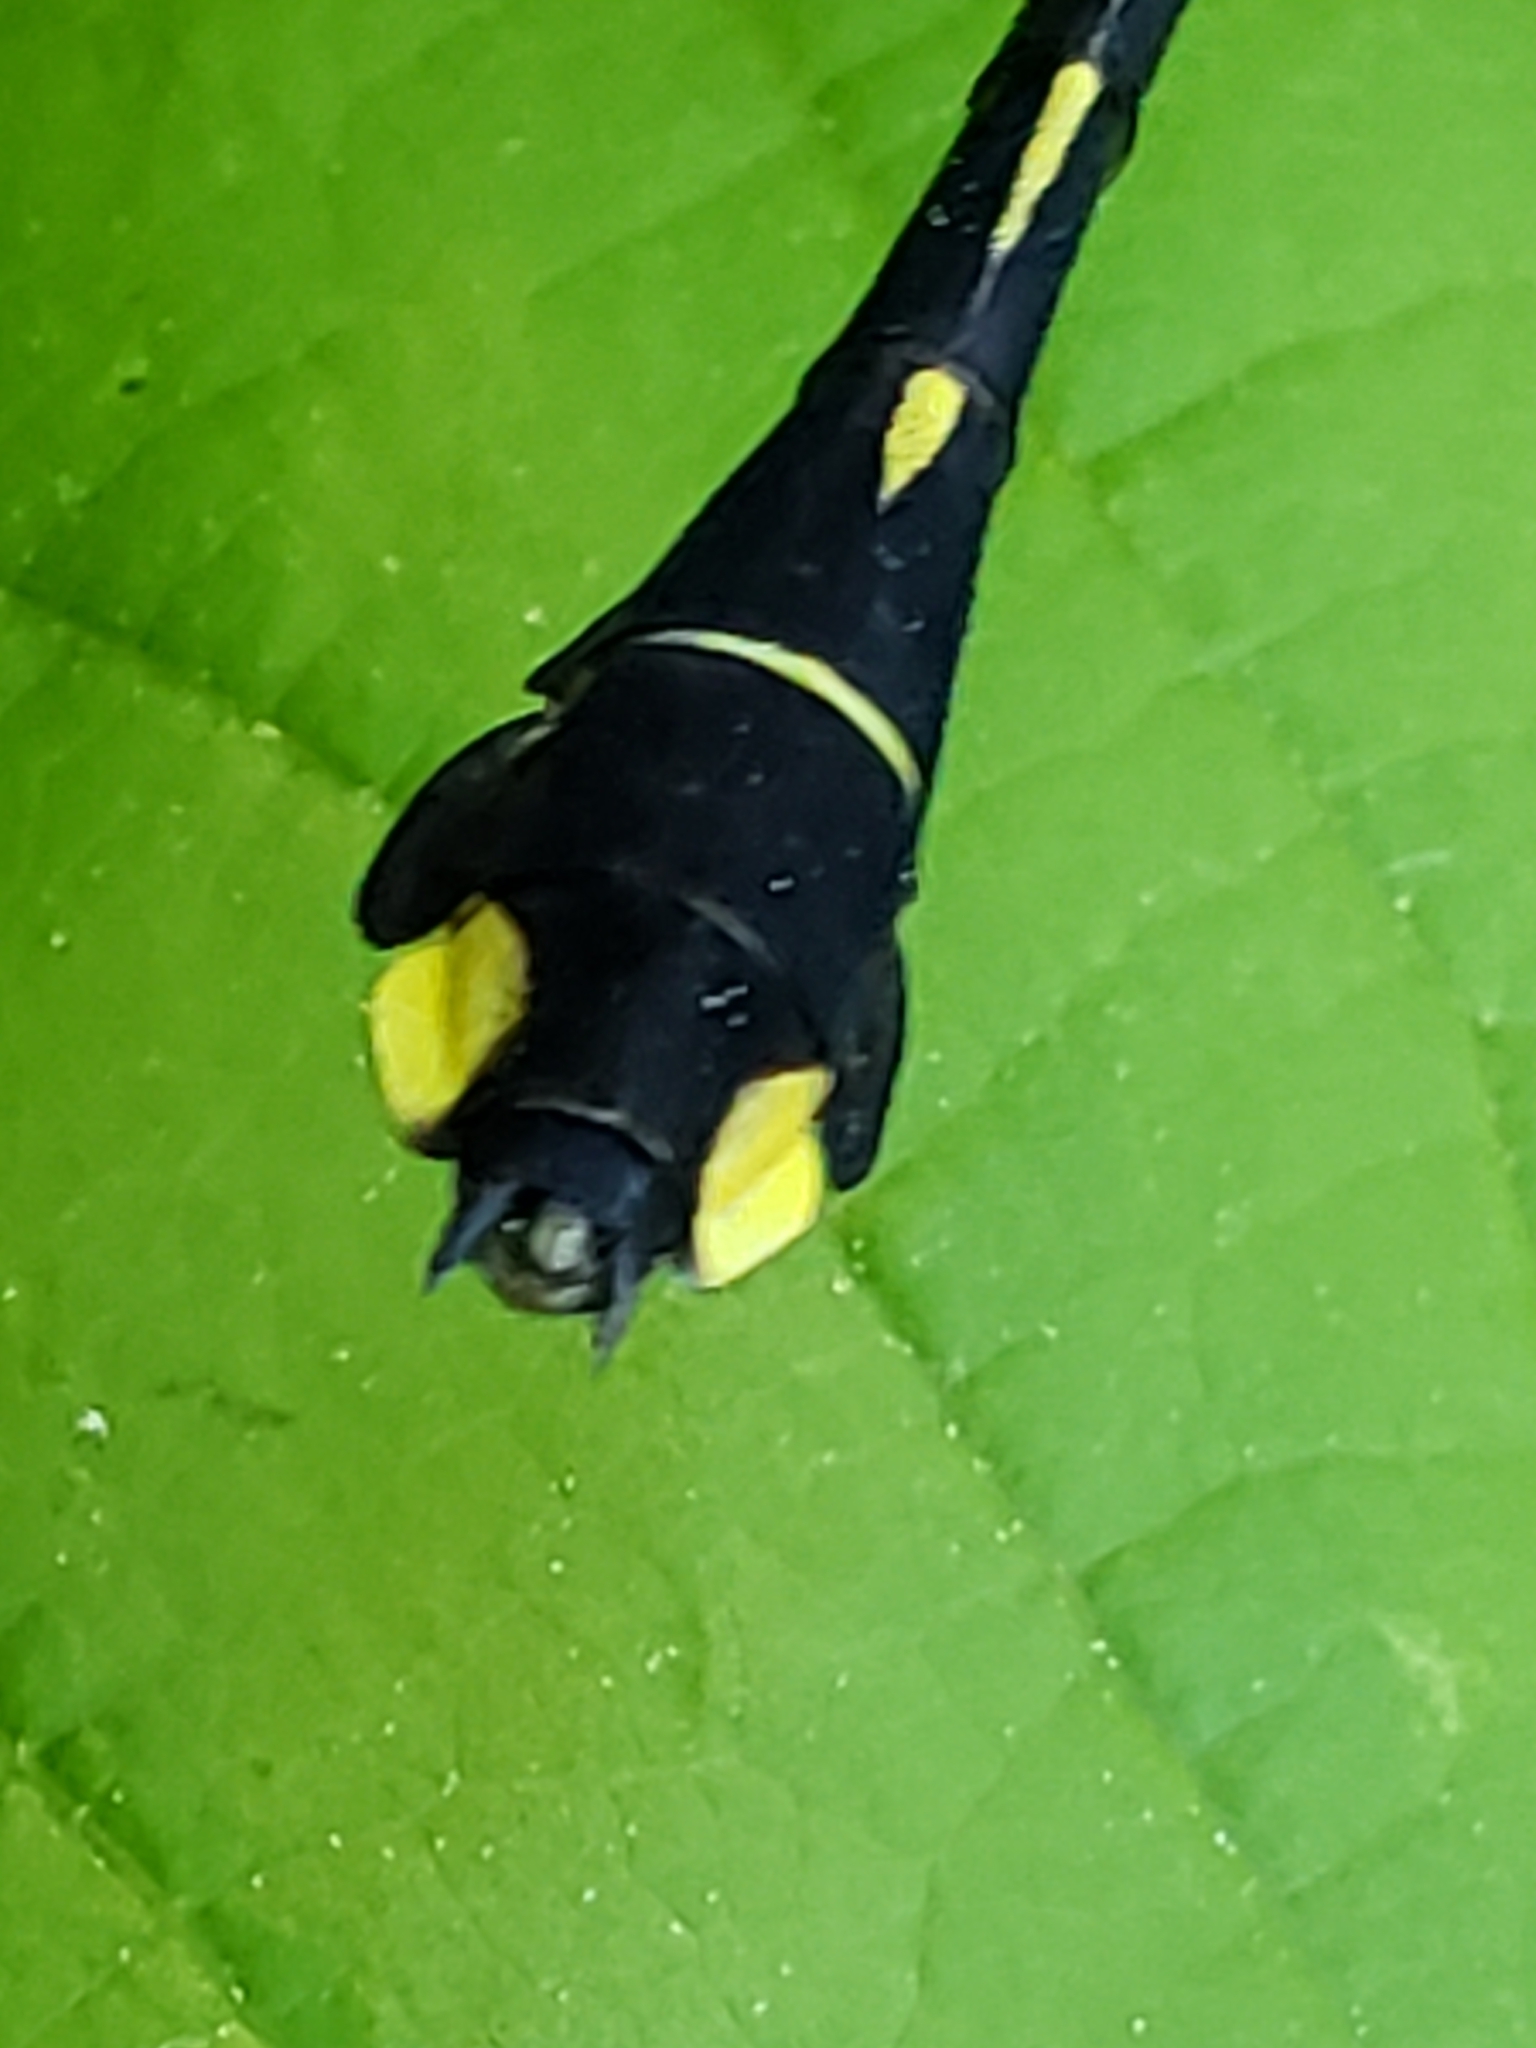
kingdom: Animalia
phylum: Arthropoda
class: Insecta
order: Odonata
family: Gomphidae
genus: Gomphurus
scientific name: Gomphurus vastus
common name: Cobra clubtail
